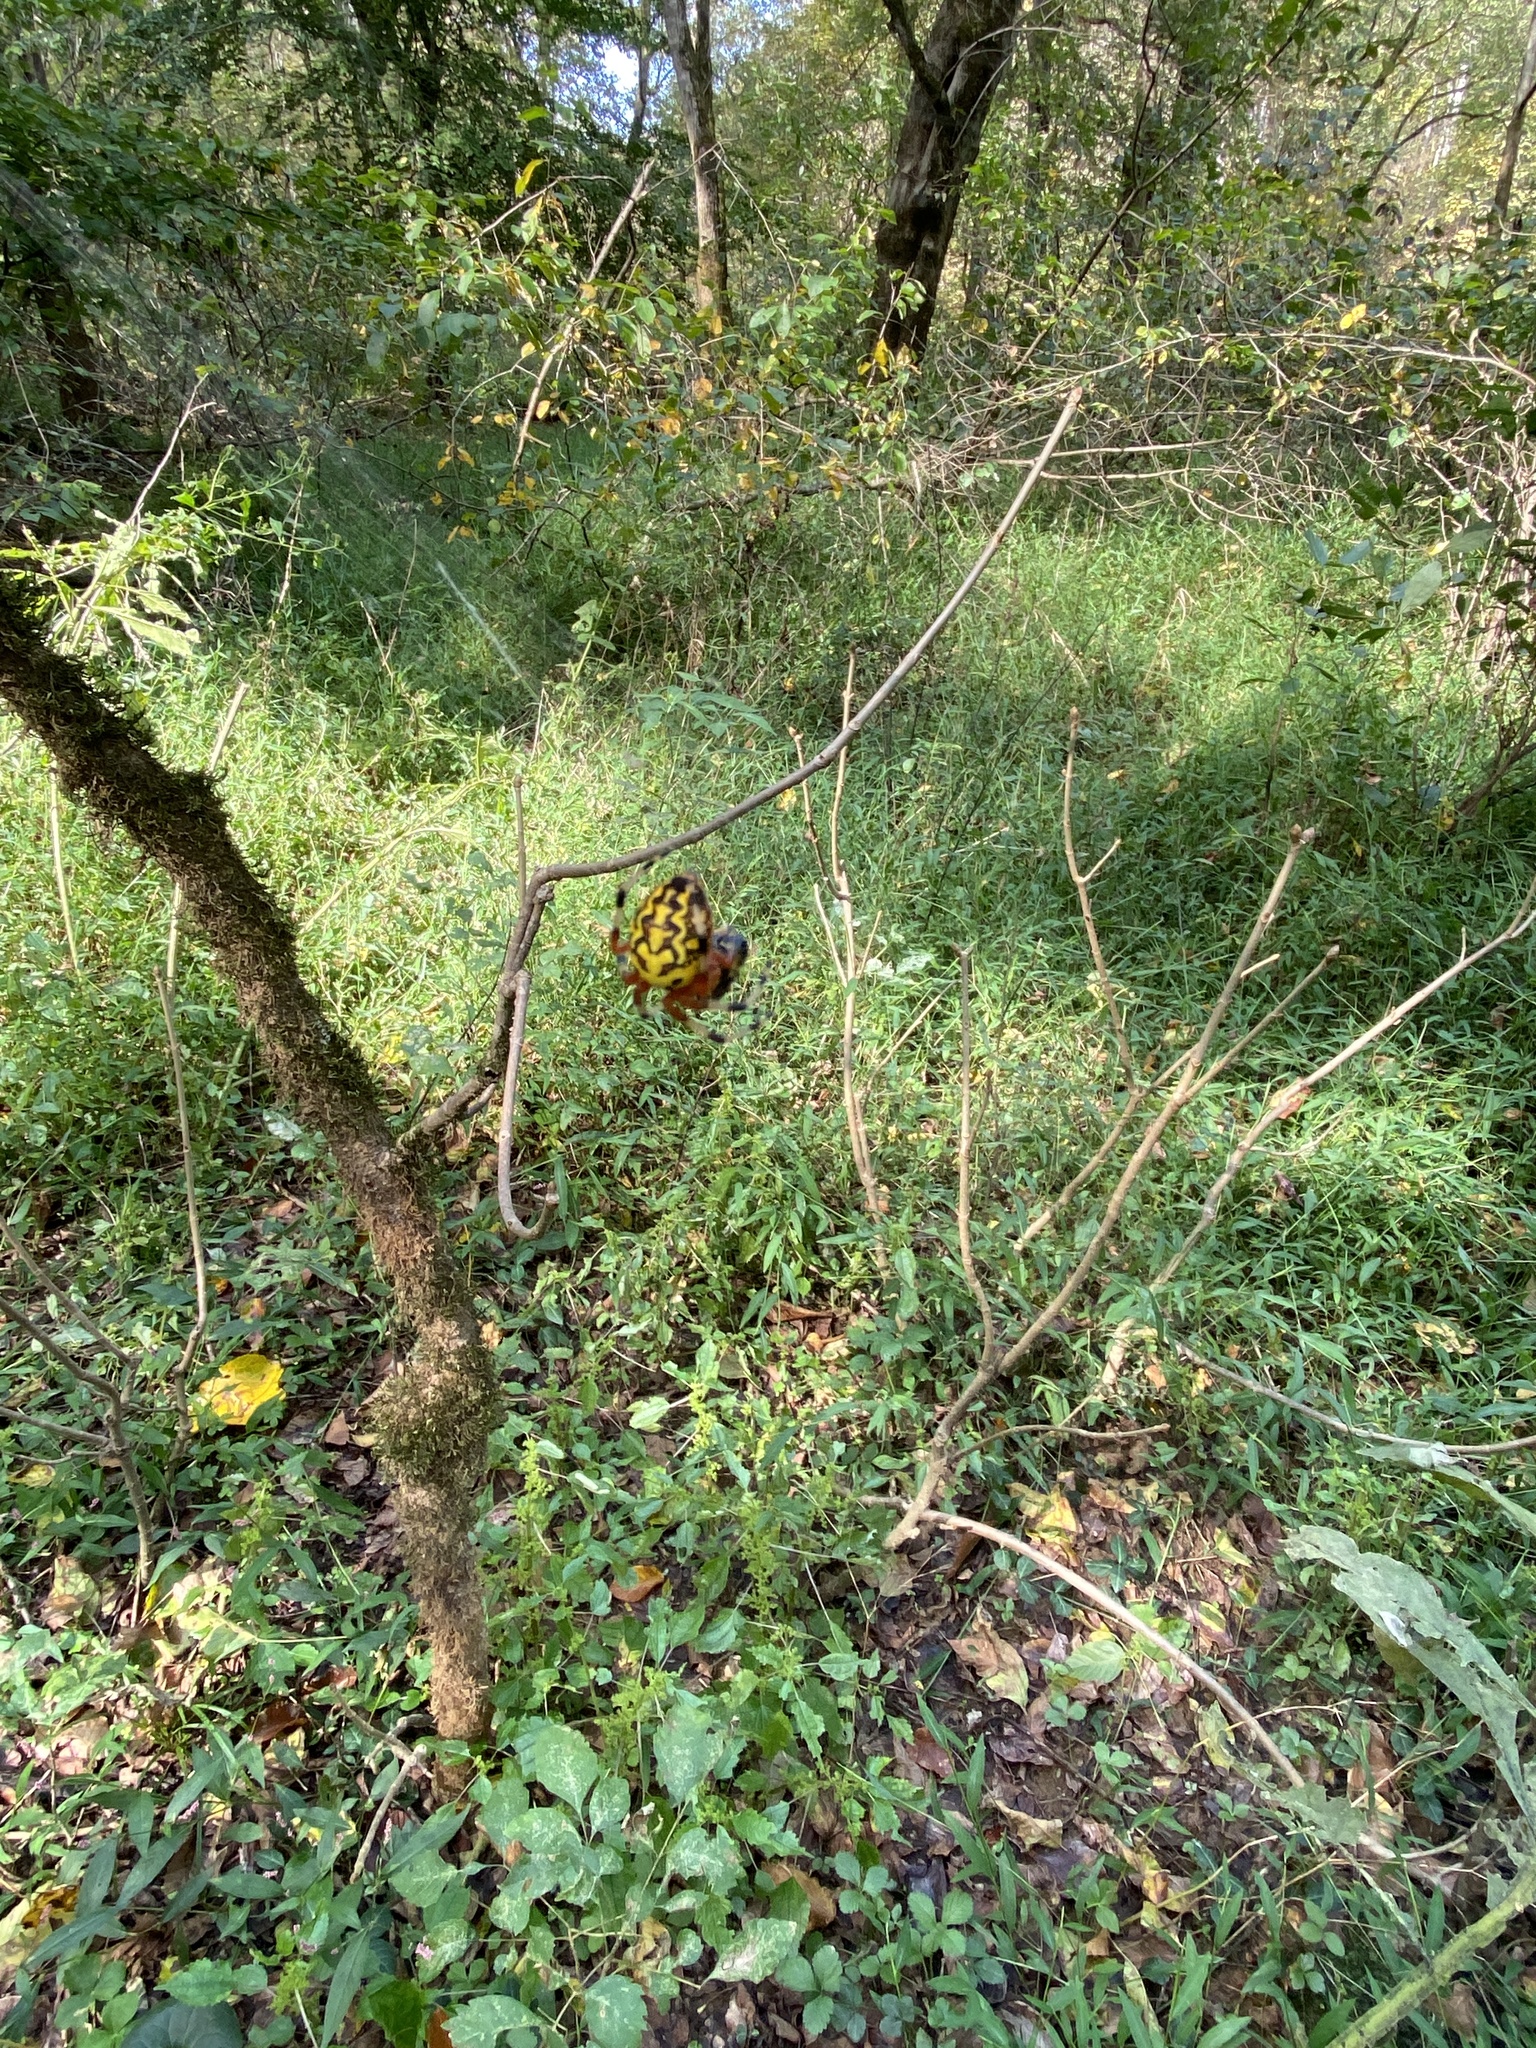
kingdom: Animalia
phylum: Arthropoda
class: Arachnida
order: Araneae
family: Araneidae
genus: Araneus
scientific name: Araneus marmoreus
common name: Marbled orbweaver
